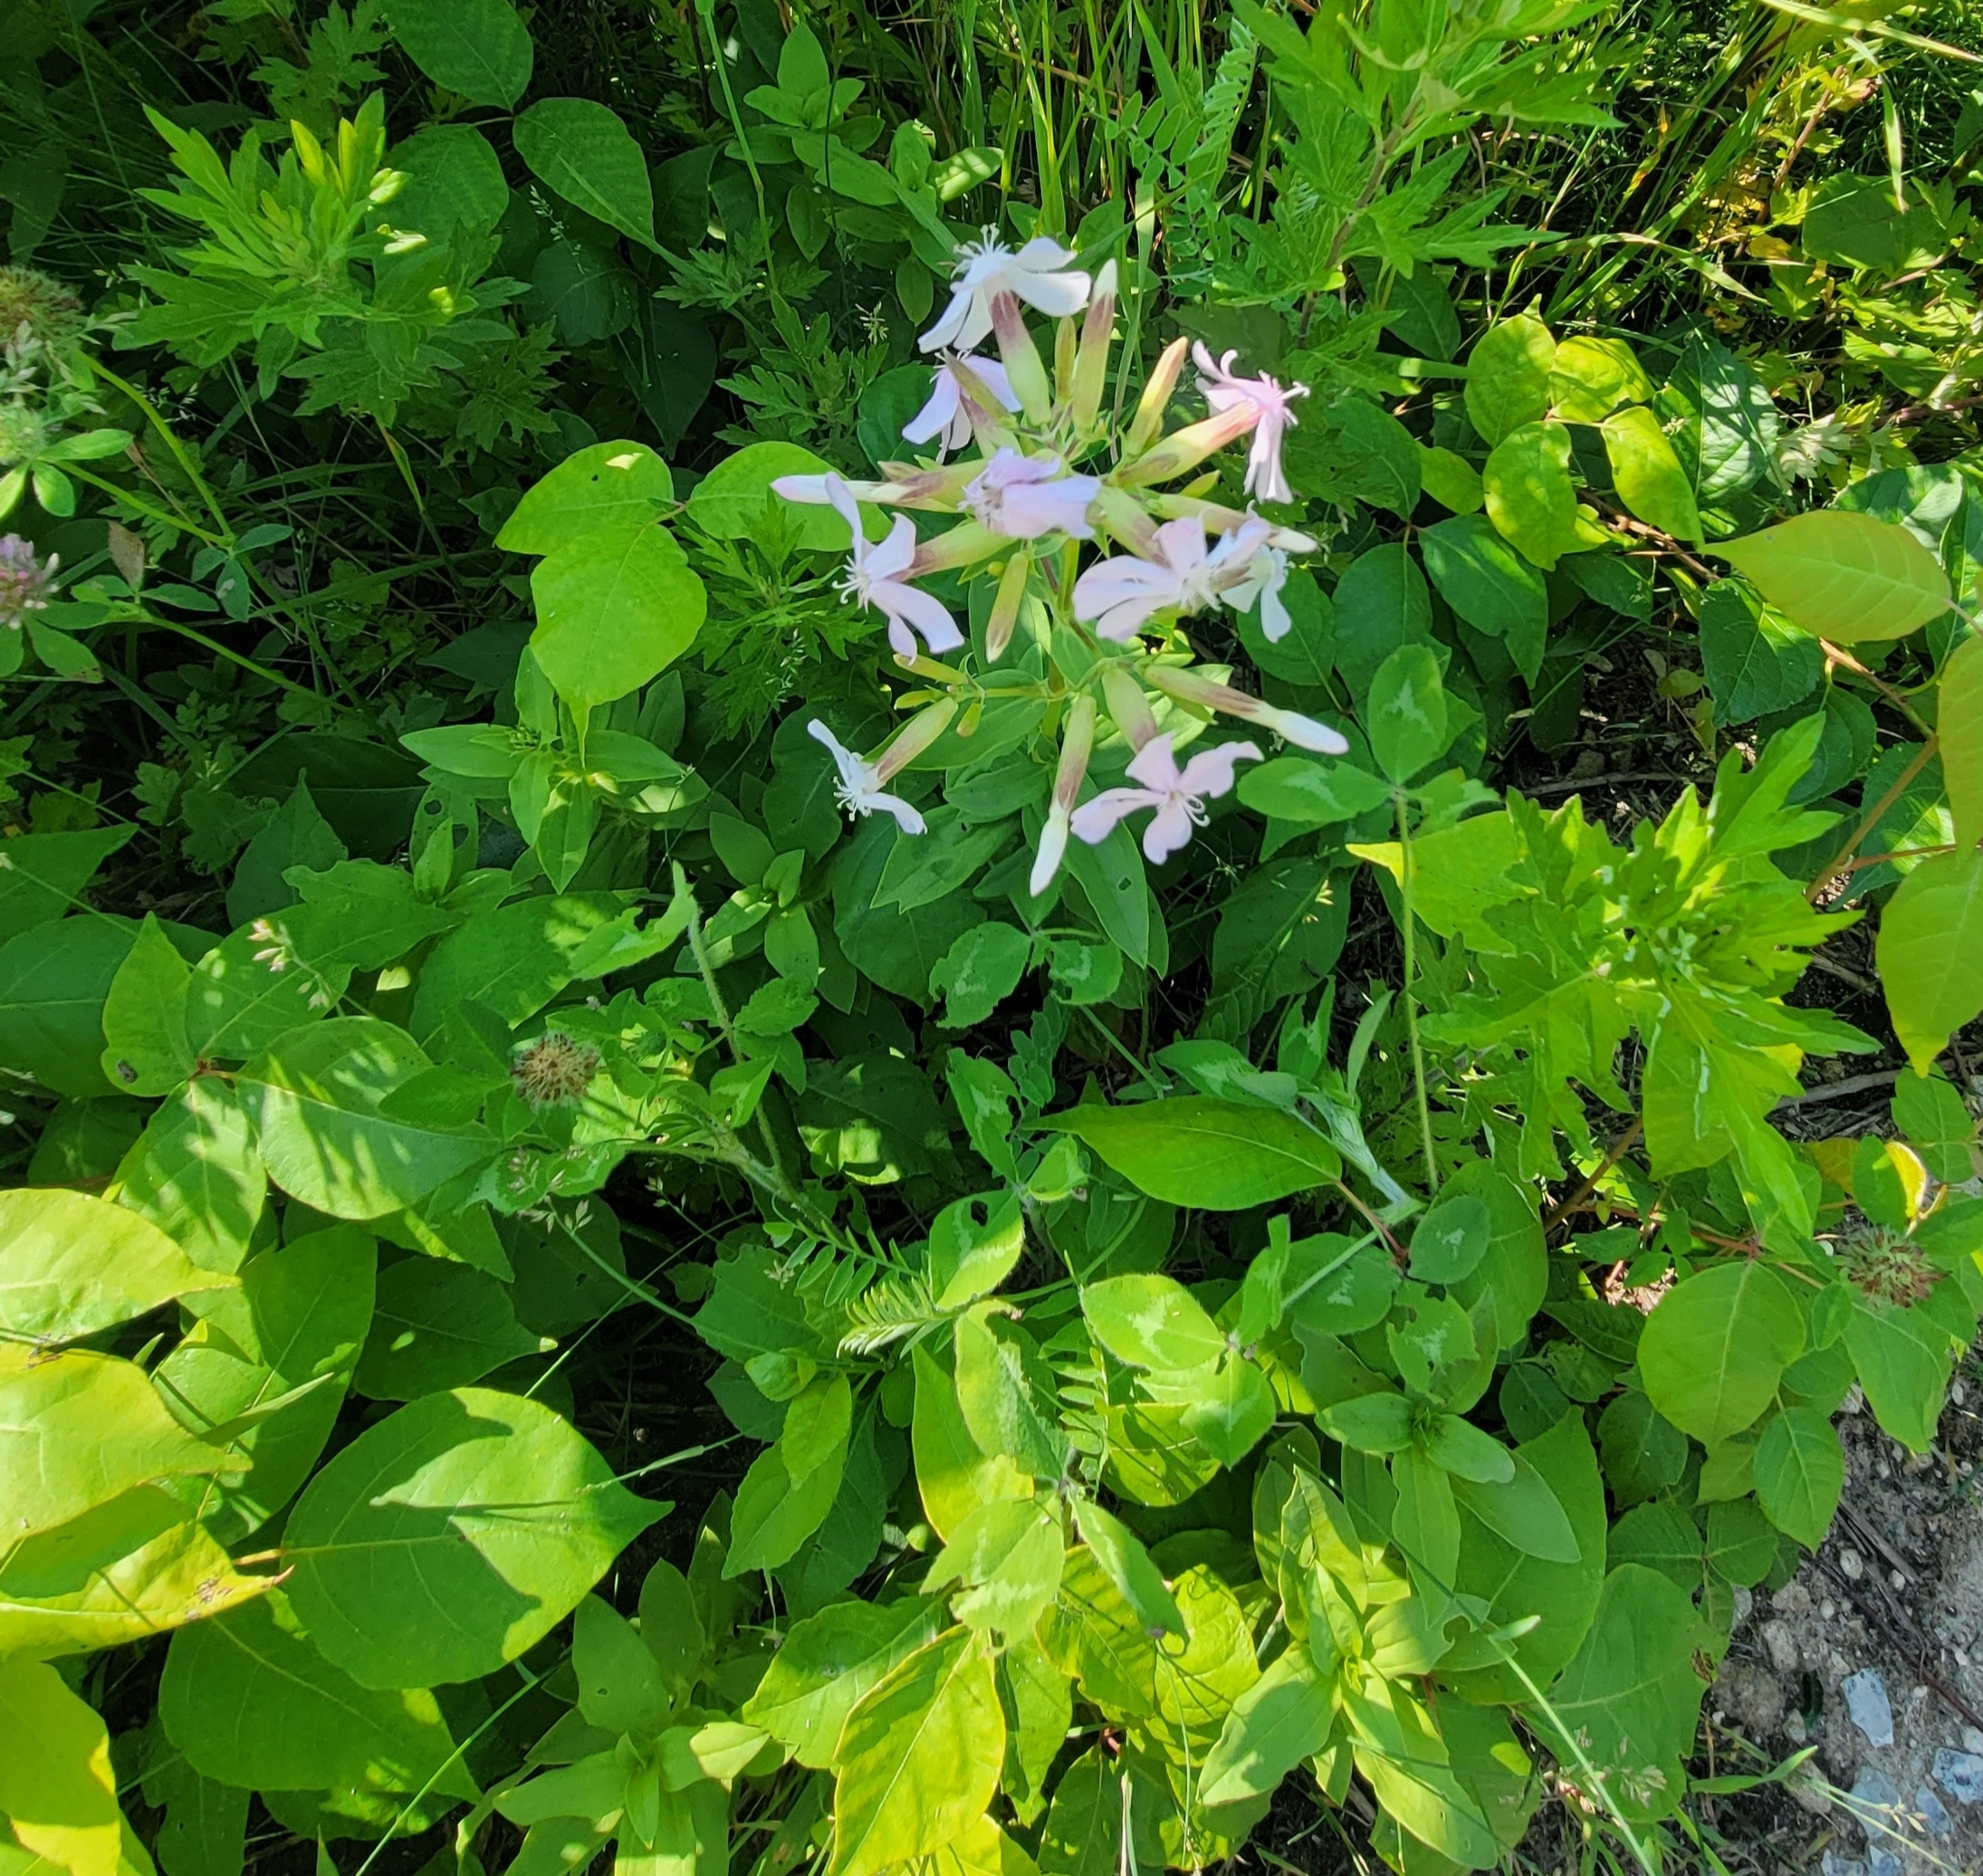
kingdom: Plantae
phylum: Tracheophyta
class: Magnoliopsida
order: Caryophyllales
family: Caryophyllaceae
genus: Saponaria
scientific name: Saponaria officinalis
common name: Soapwort
